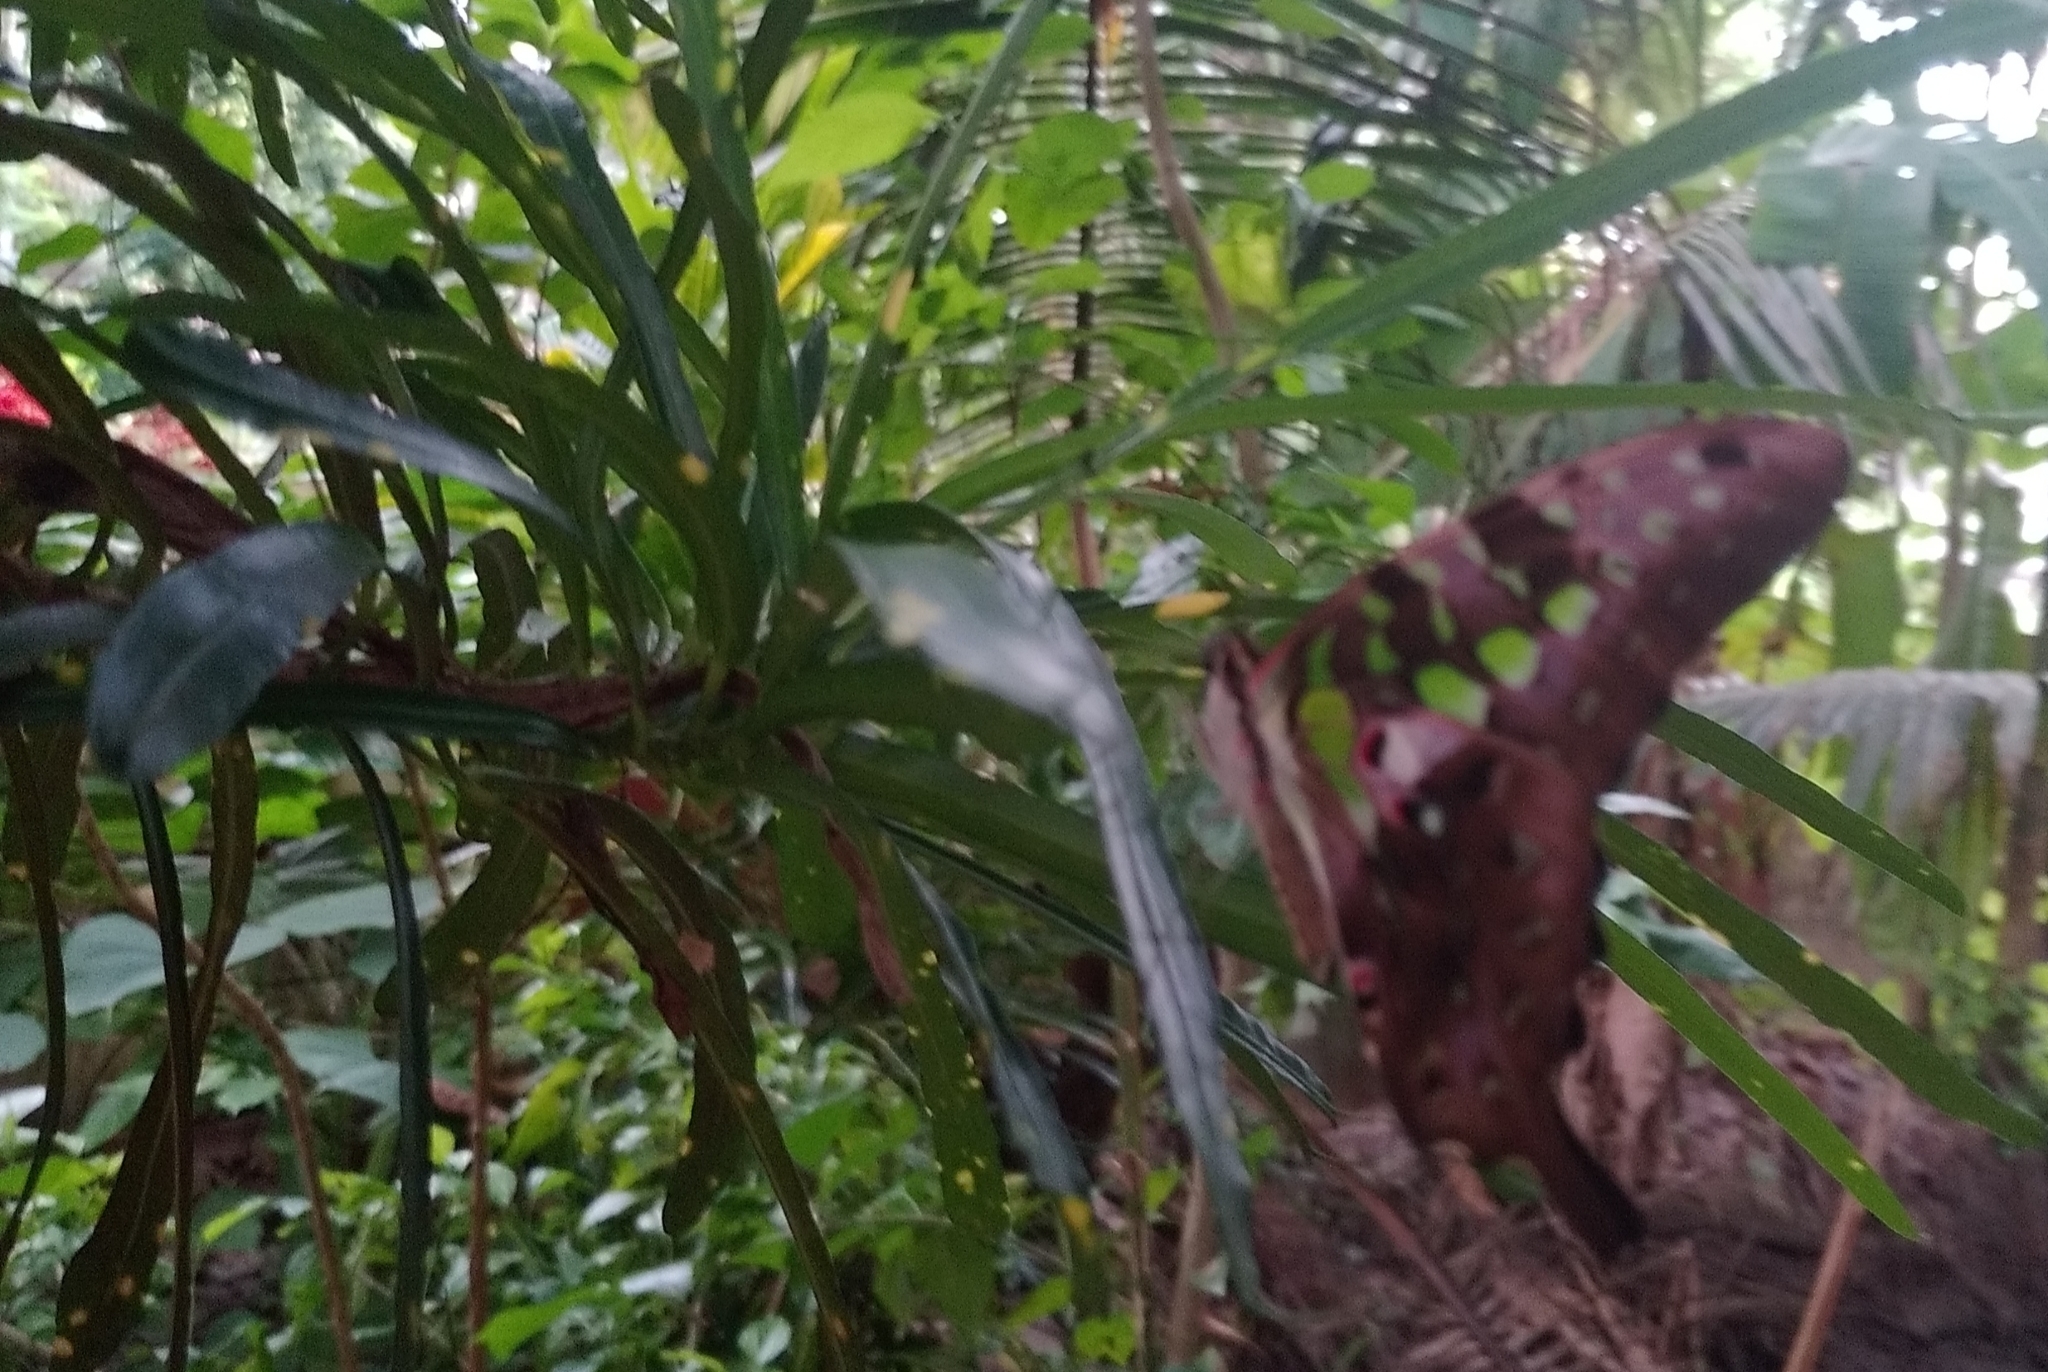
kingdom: Animalia
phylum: Arthropoda
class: Insecta
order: Lepidoptera
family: Papilionidae
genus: Graphium
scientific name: Graphium agamemnon
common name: Tailed jay
